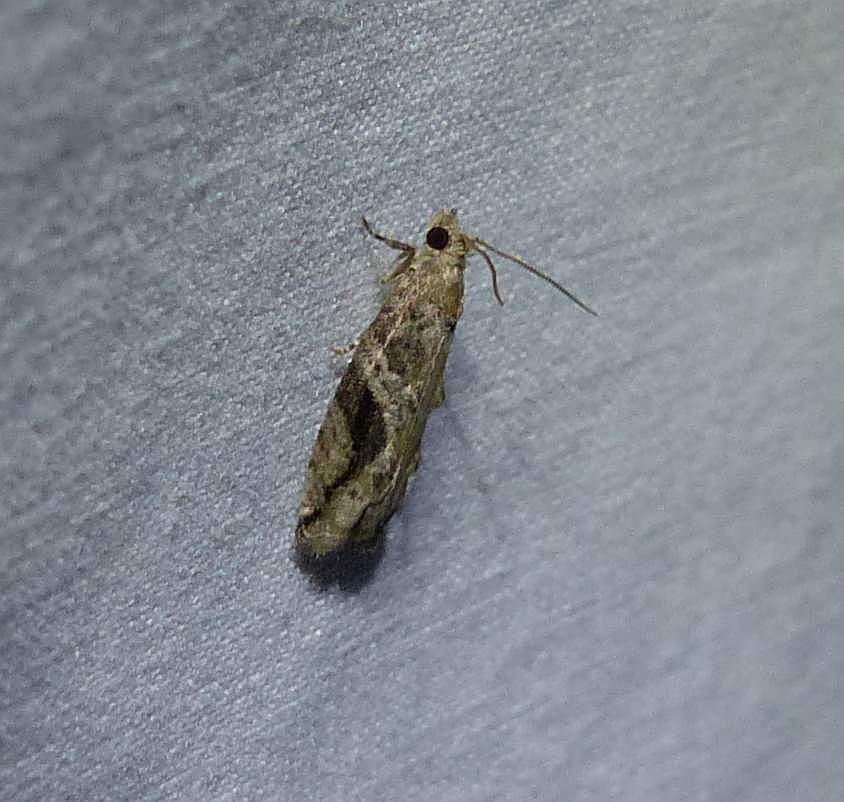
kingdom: Animalia
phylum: Arthropoda
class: Insecta
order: Lepidoptera
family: Tortricidae
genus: Proteoteras
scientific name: Proteoteras crescentana
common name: Black-crescent proteoteras moth
